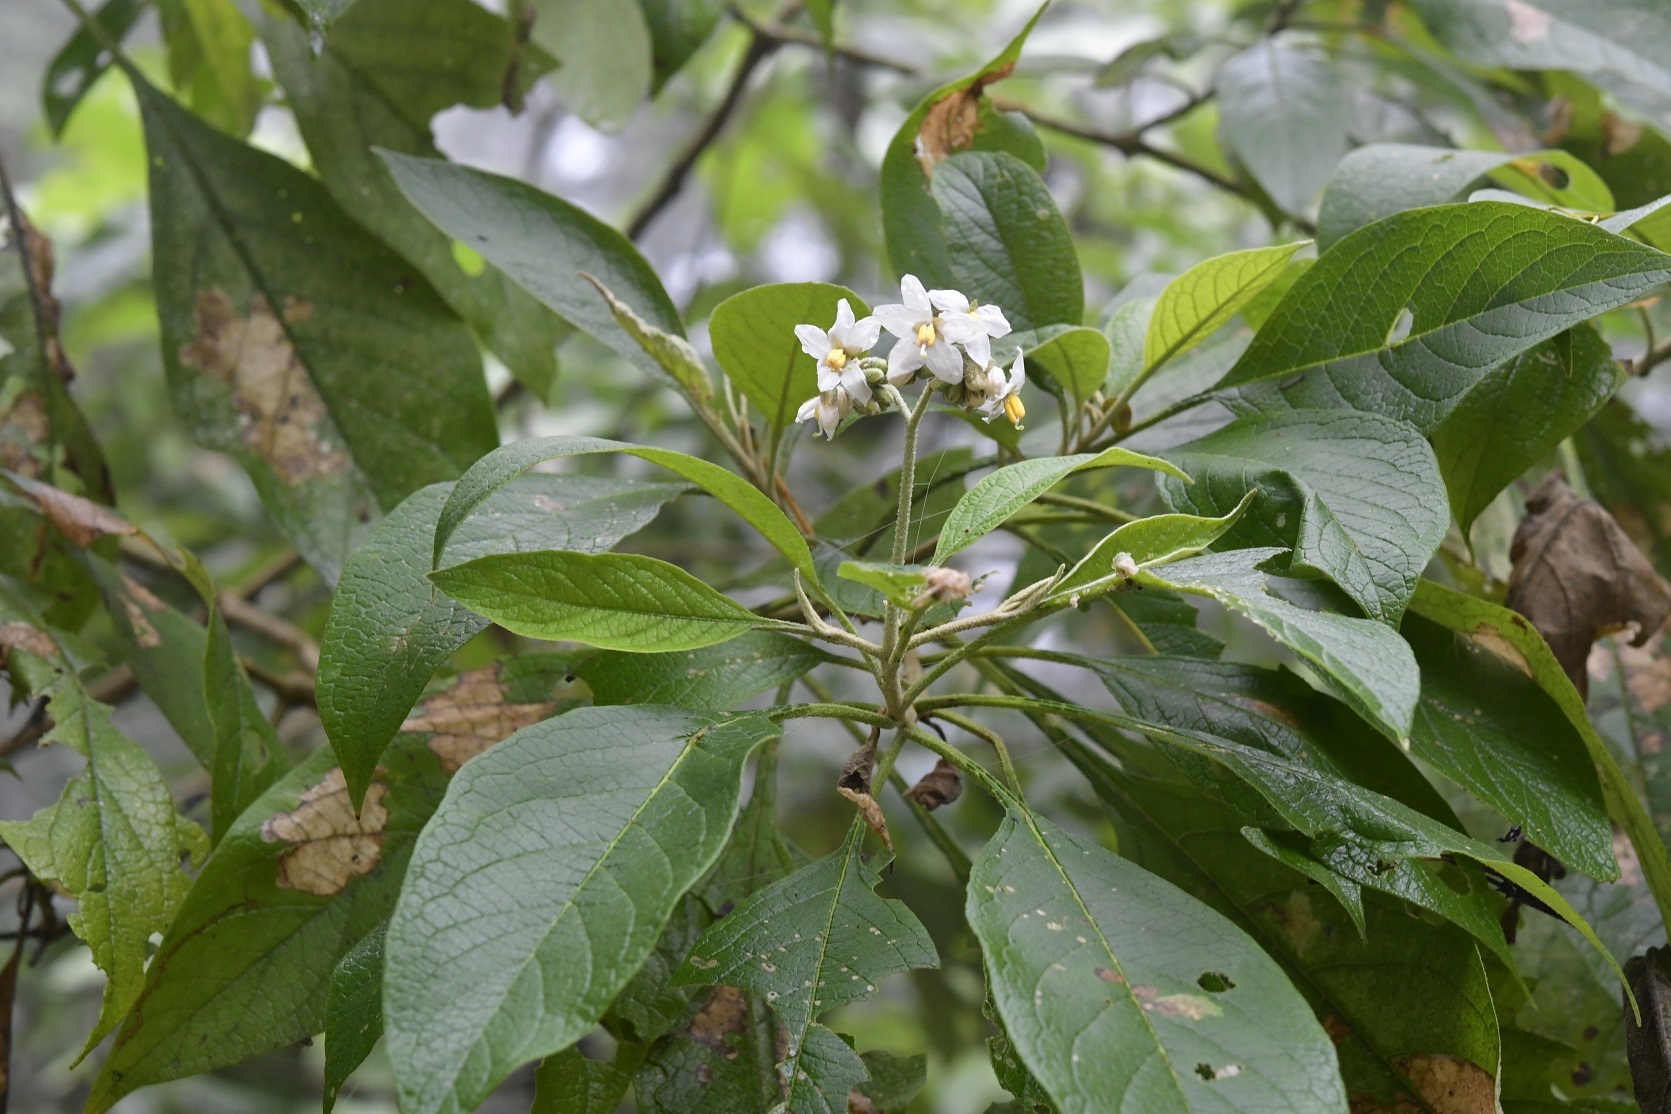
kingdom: Plantae
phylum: Tracheophyta
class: Magnoliopsida
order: Solanales
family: Solanaceae
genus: Solanum
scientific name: Solanum chiapasense
